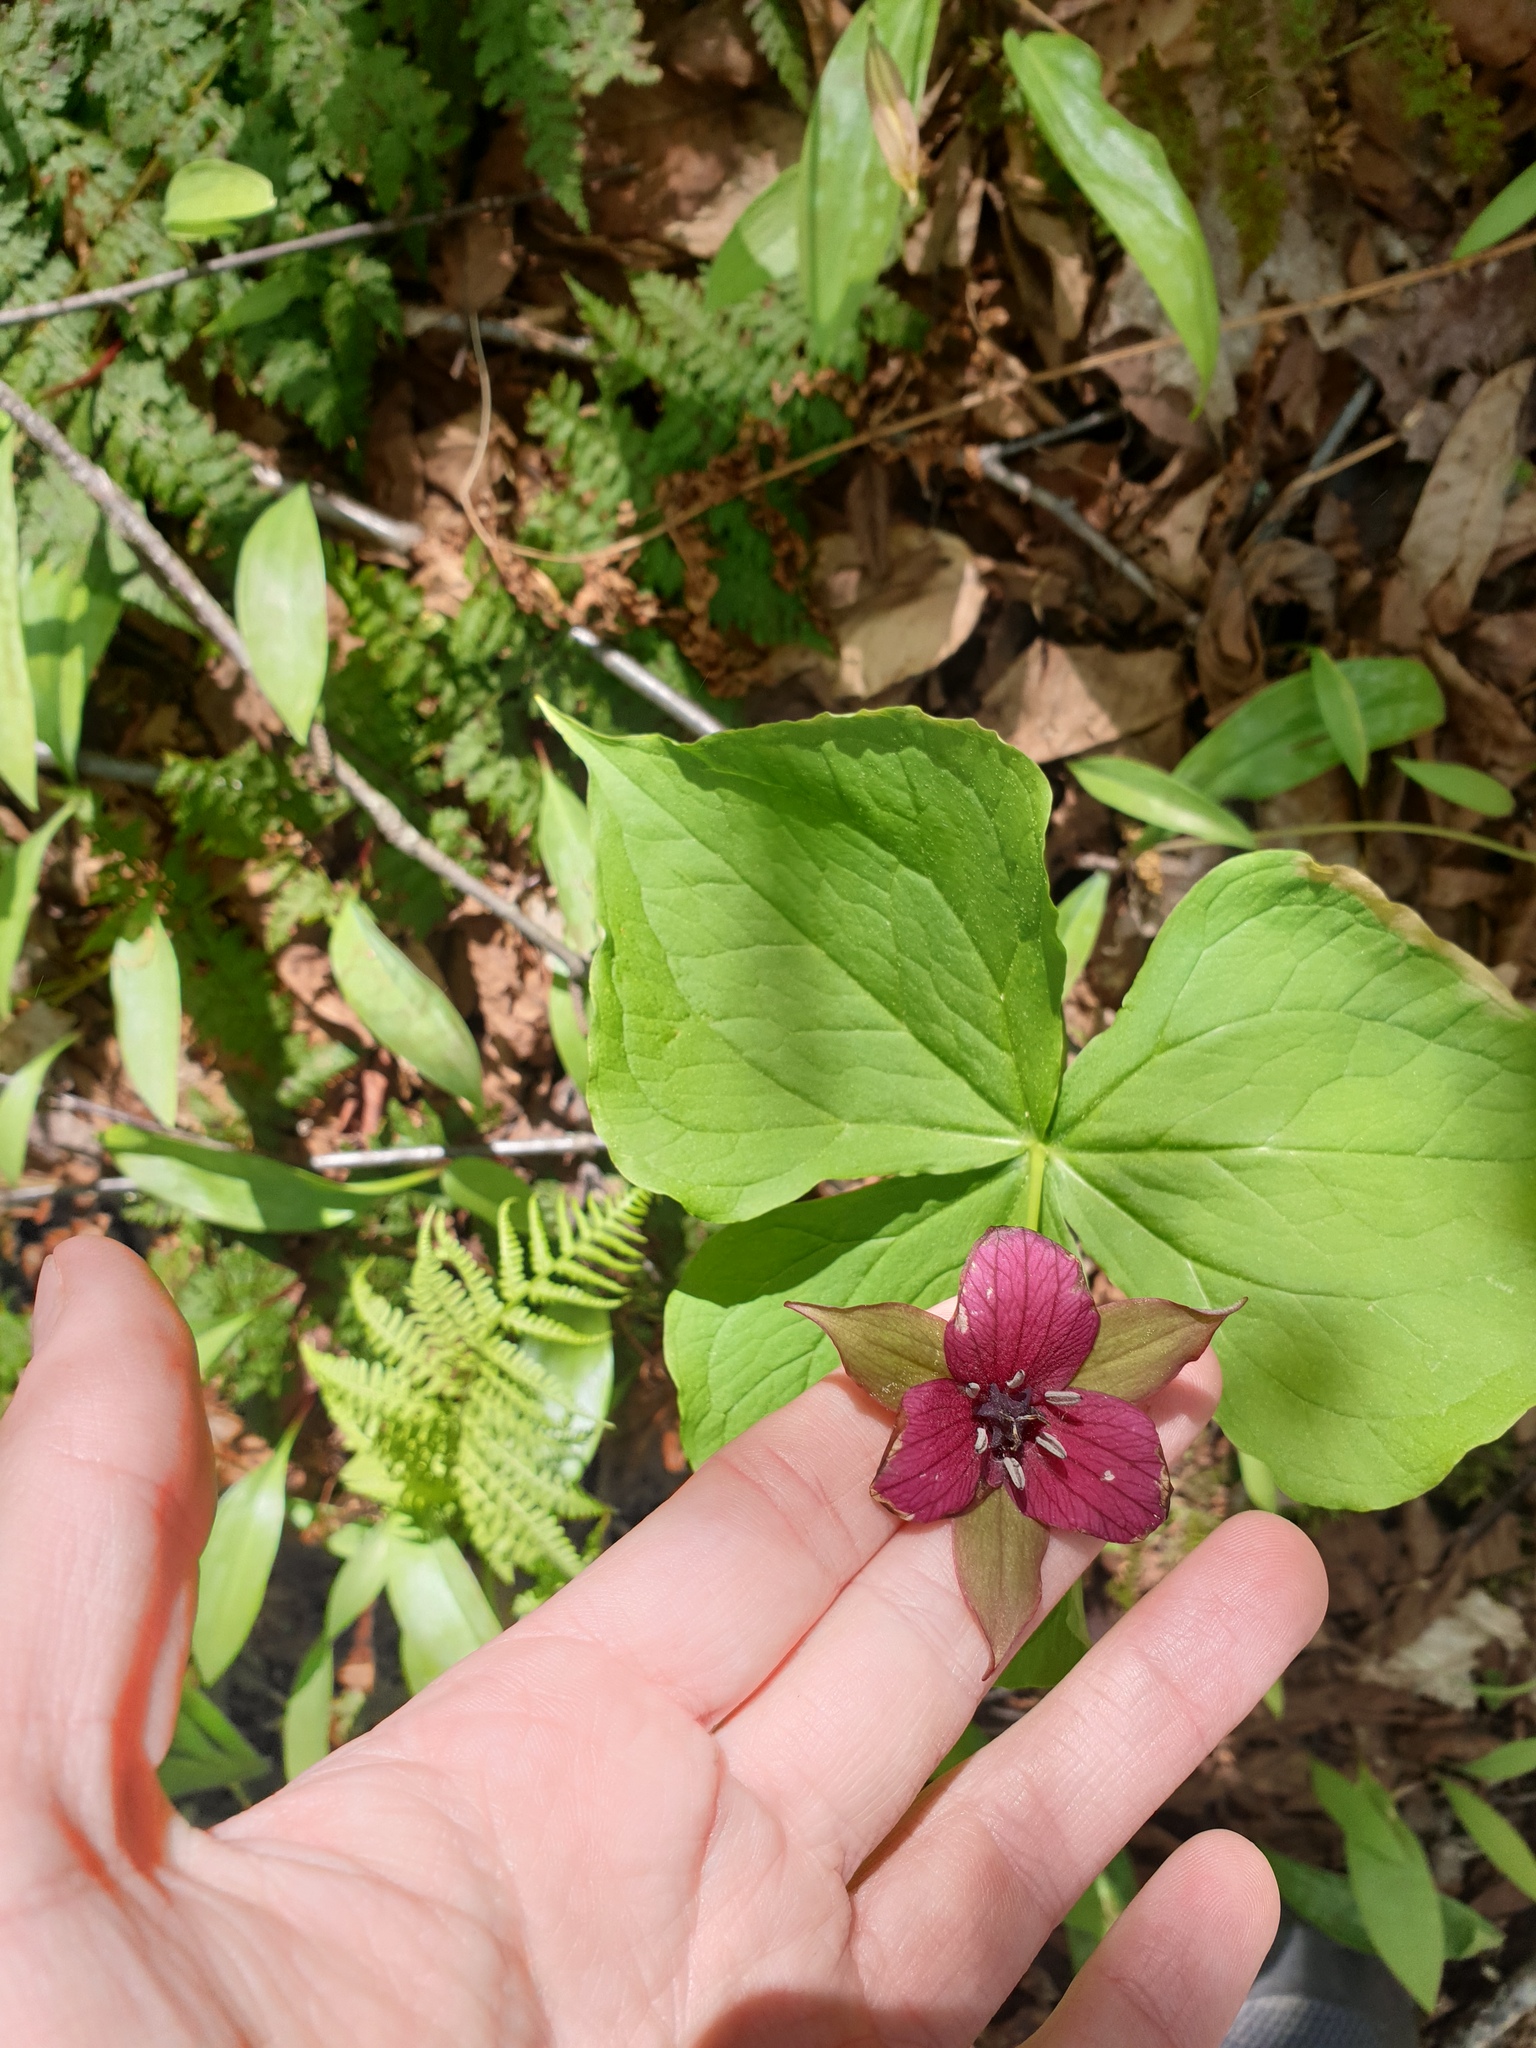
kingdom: Plantae
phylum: Tracheophyta
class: Liliopsida
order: Liliales
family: Melanthiaceae
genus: Trillium
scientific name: Trillium erectum
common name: Purple trillium
